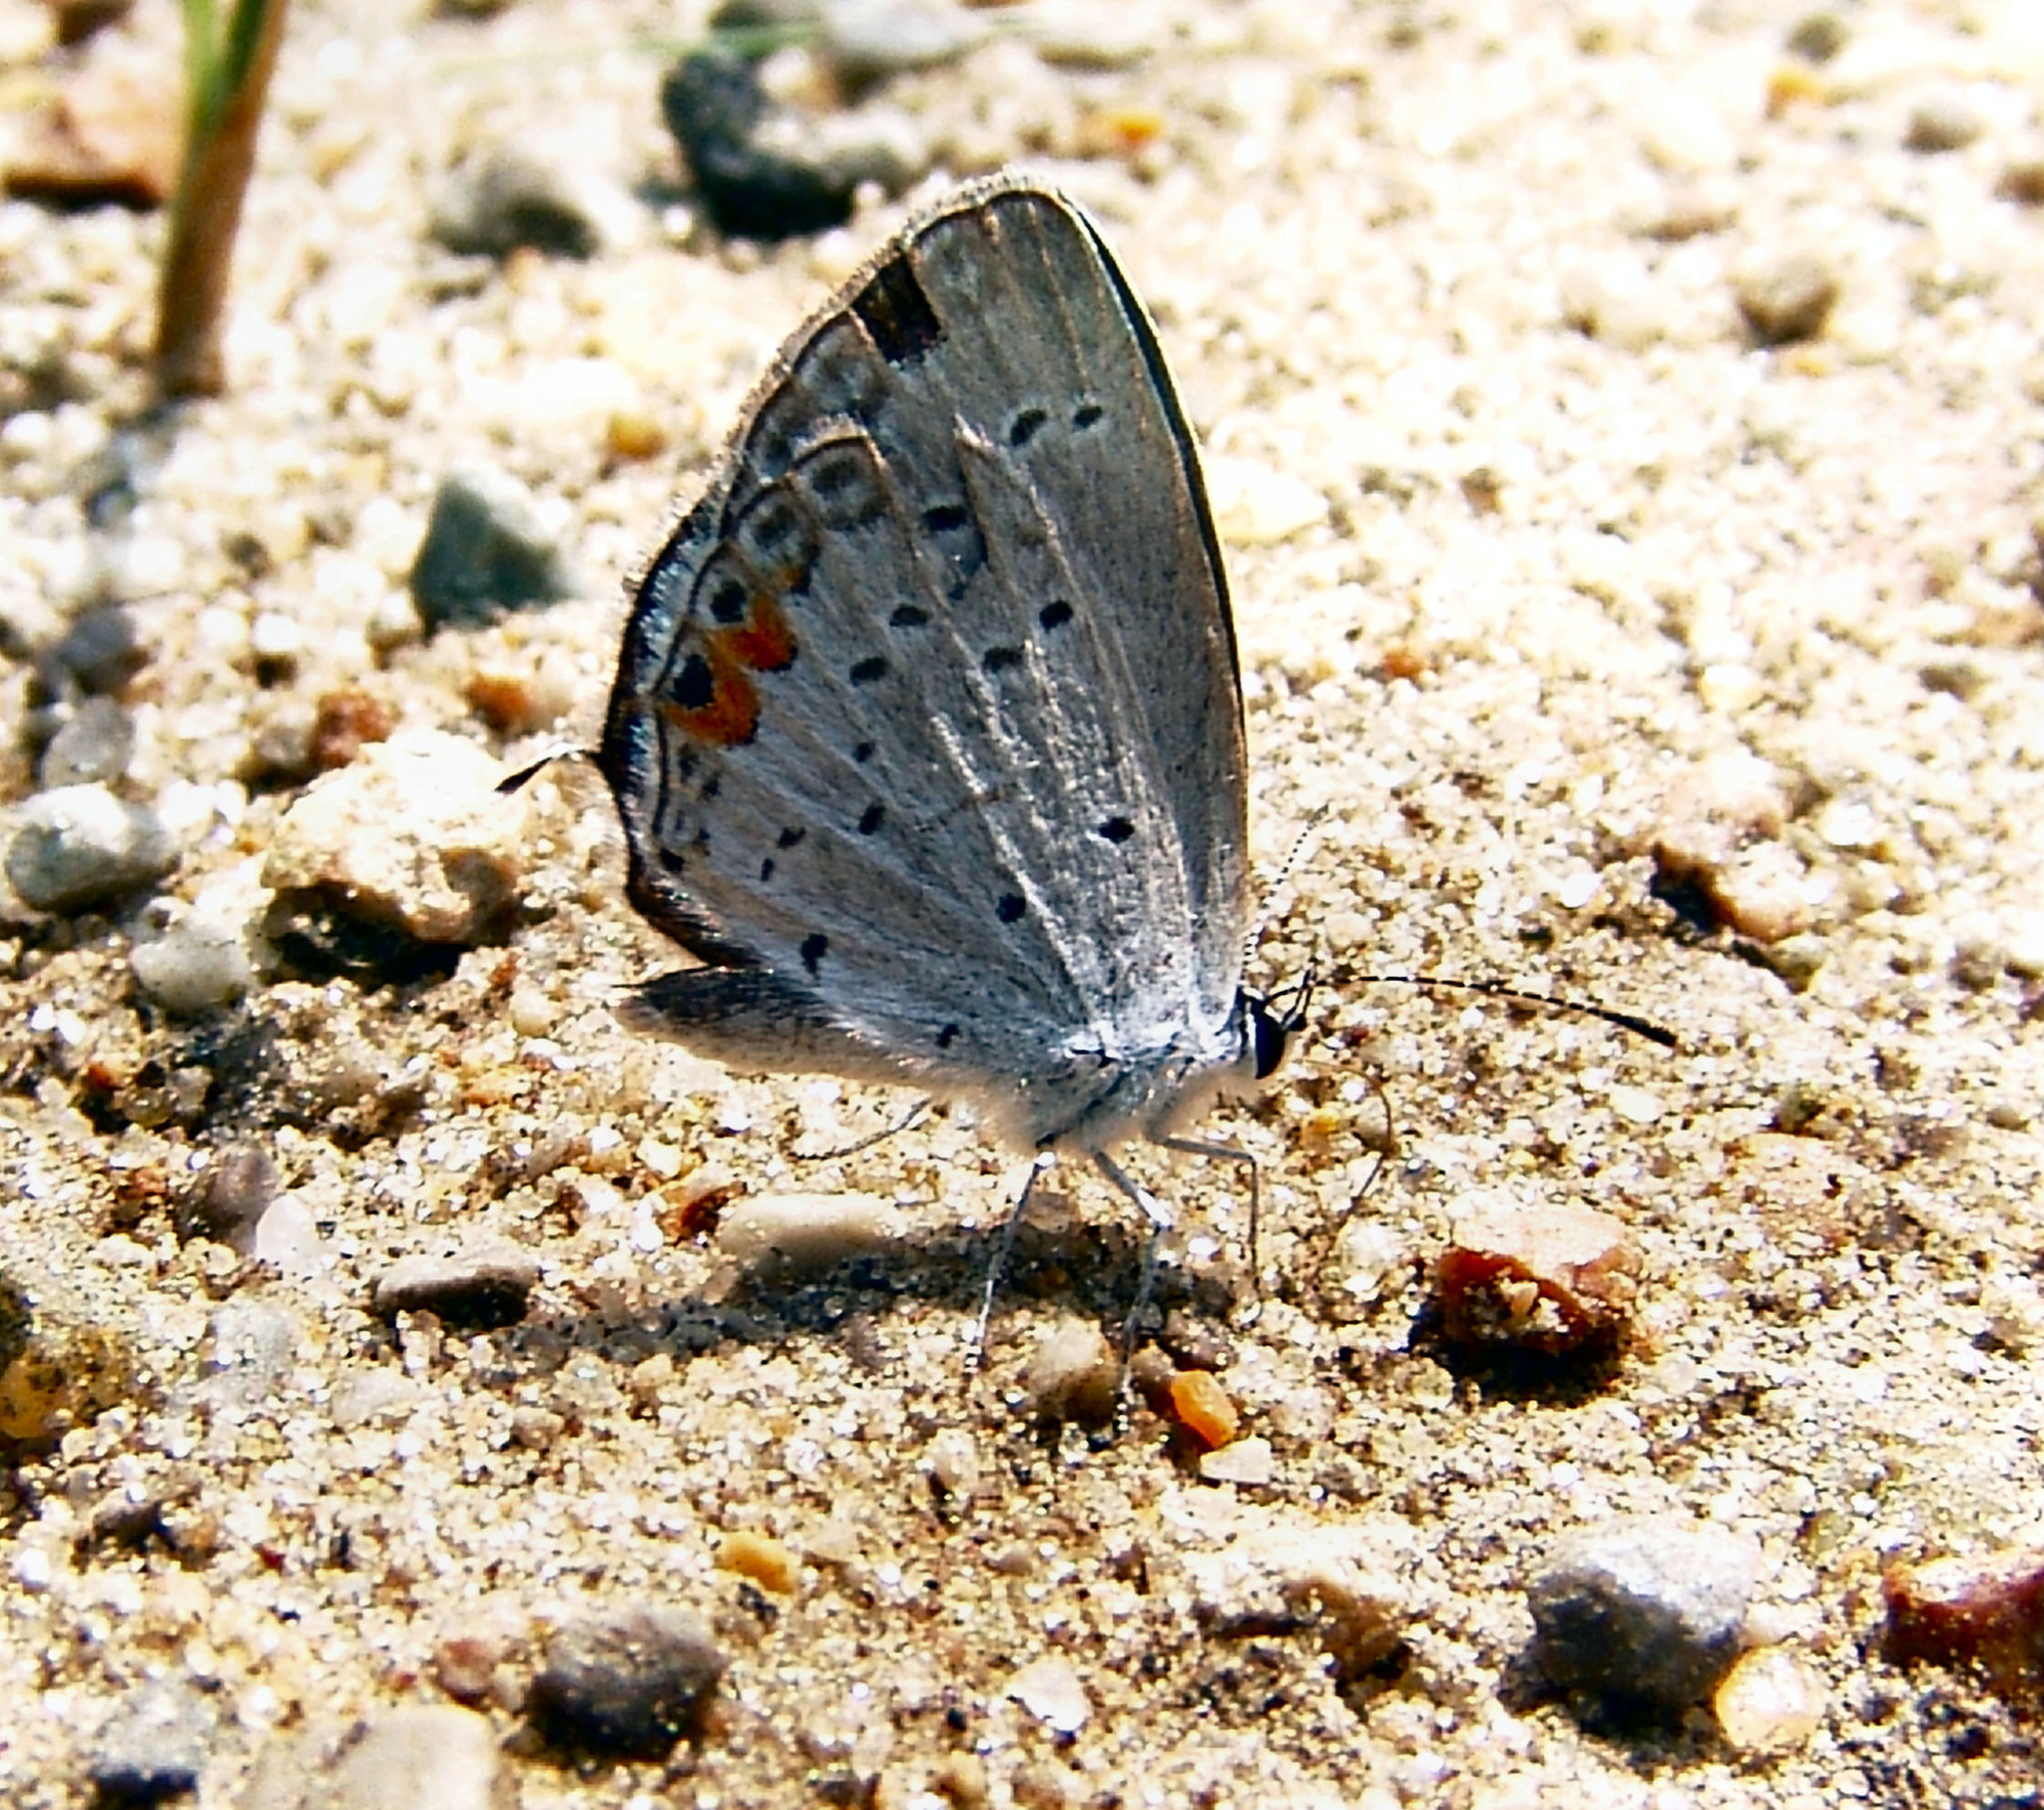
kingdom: Animalia
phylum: Arthropoda
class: Insecta
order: Lepidoptera
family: Lycaenidae
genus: Elkalyce
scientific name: Elkalyce comyntas
